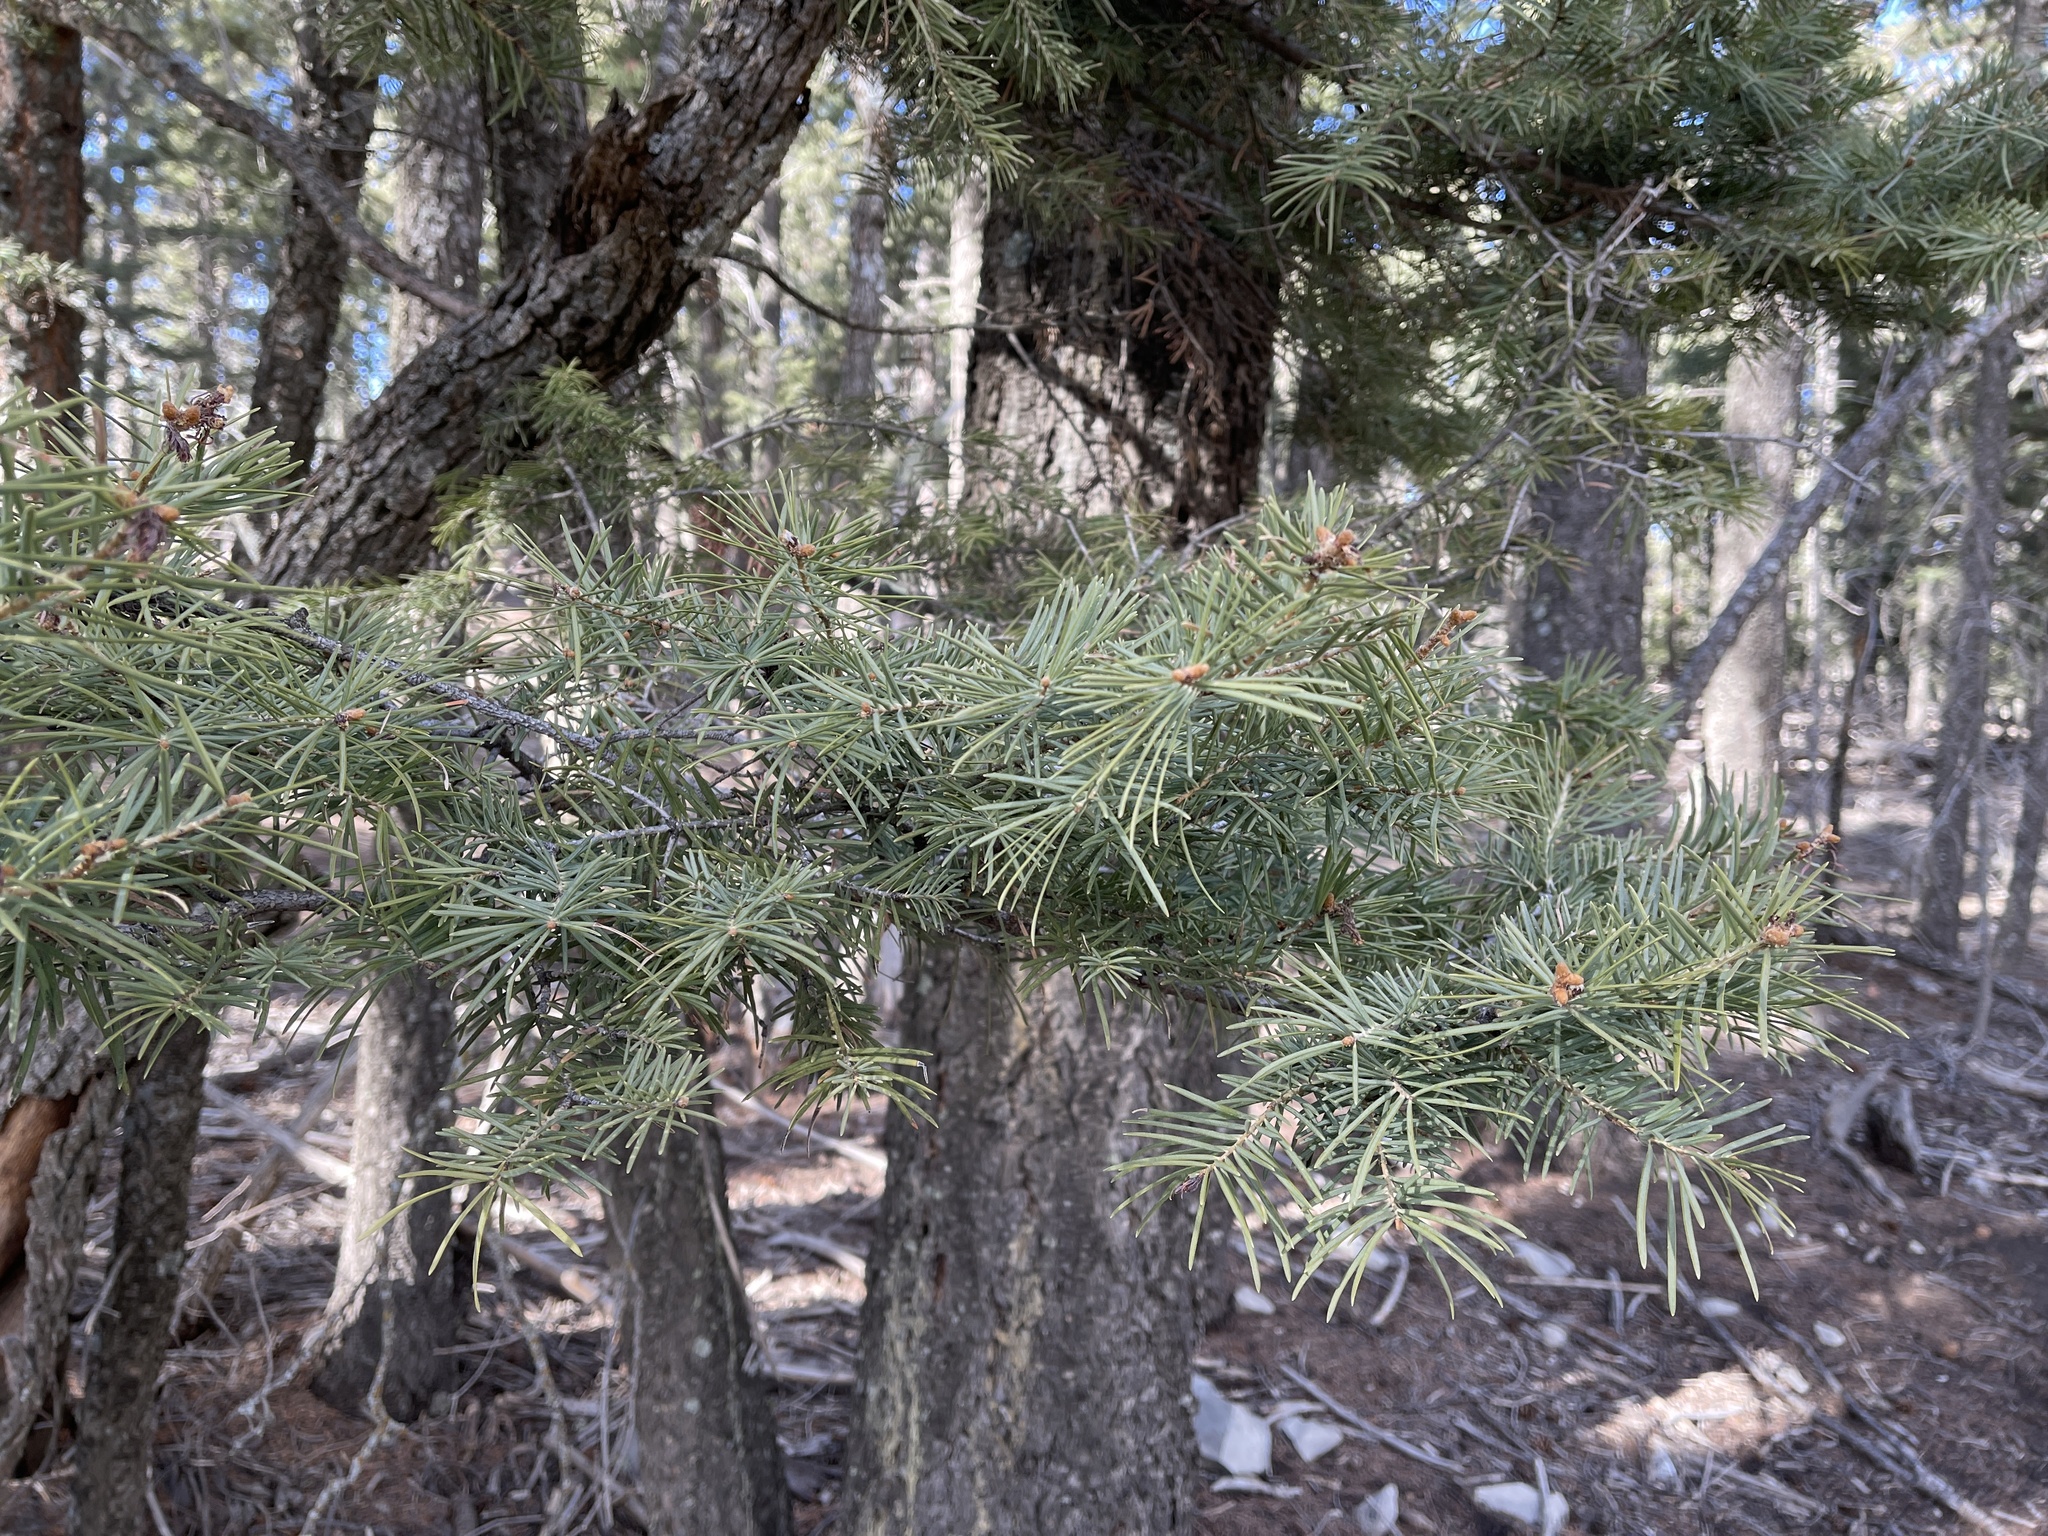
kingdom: Plantae
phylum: Tracheophyta
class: Pinopsida
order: Pinales
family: Pinaceae
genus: Abies
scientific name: Abies concolor
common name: Colorado fir
